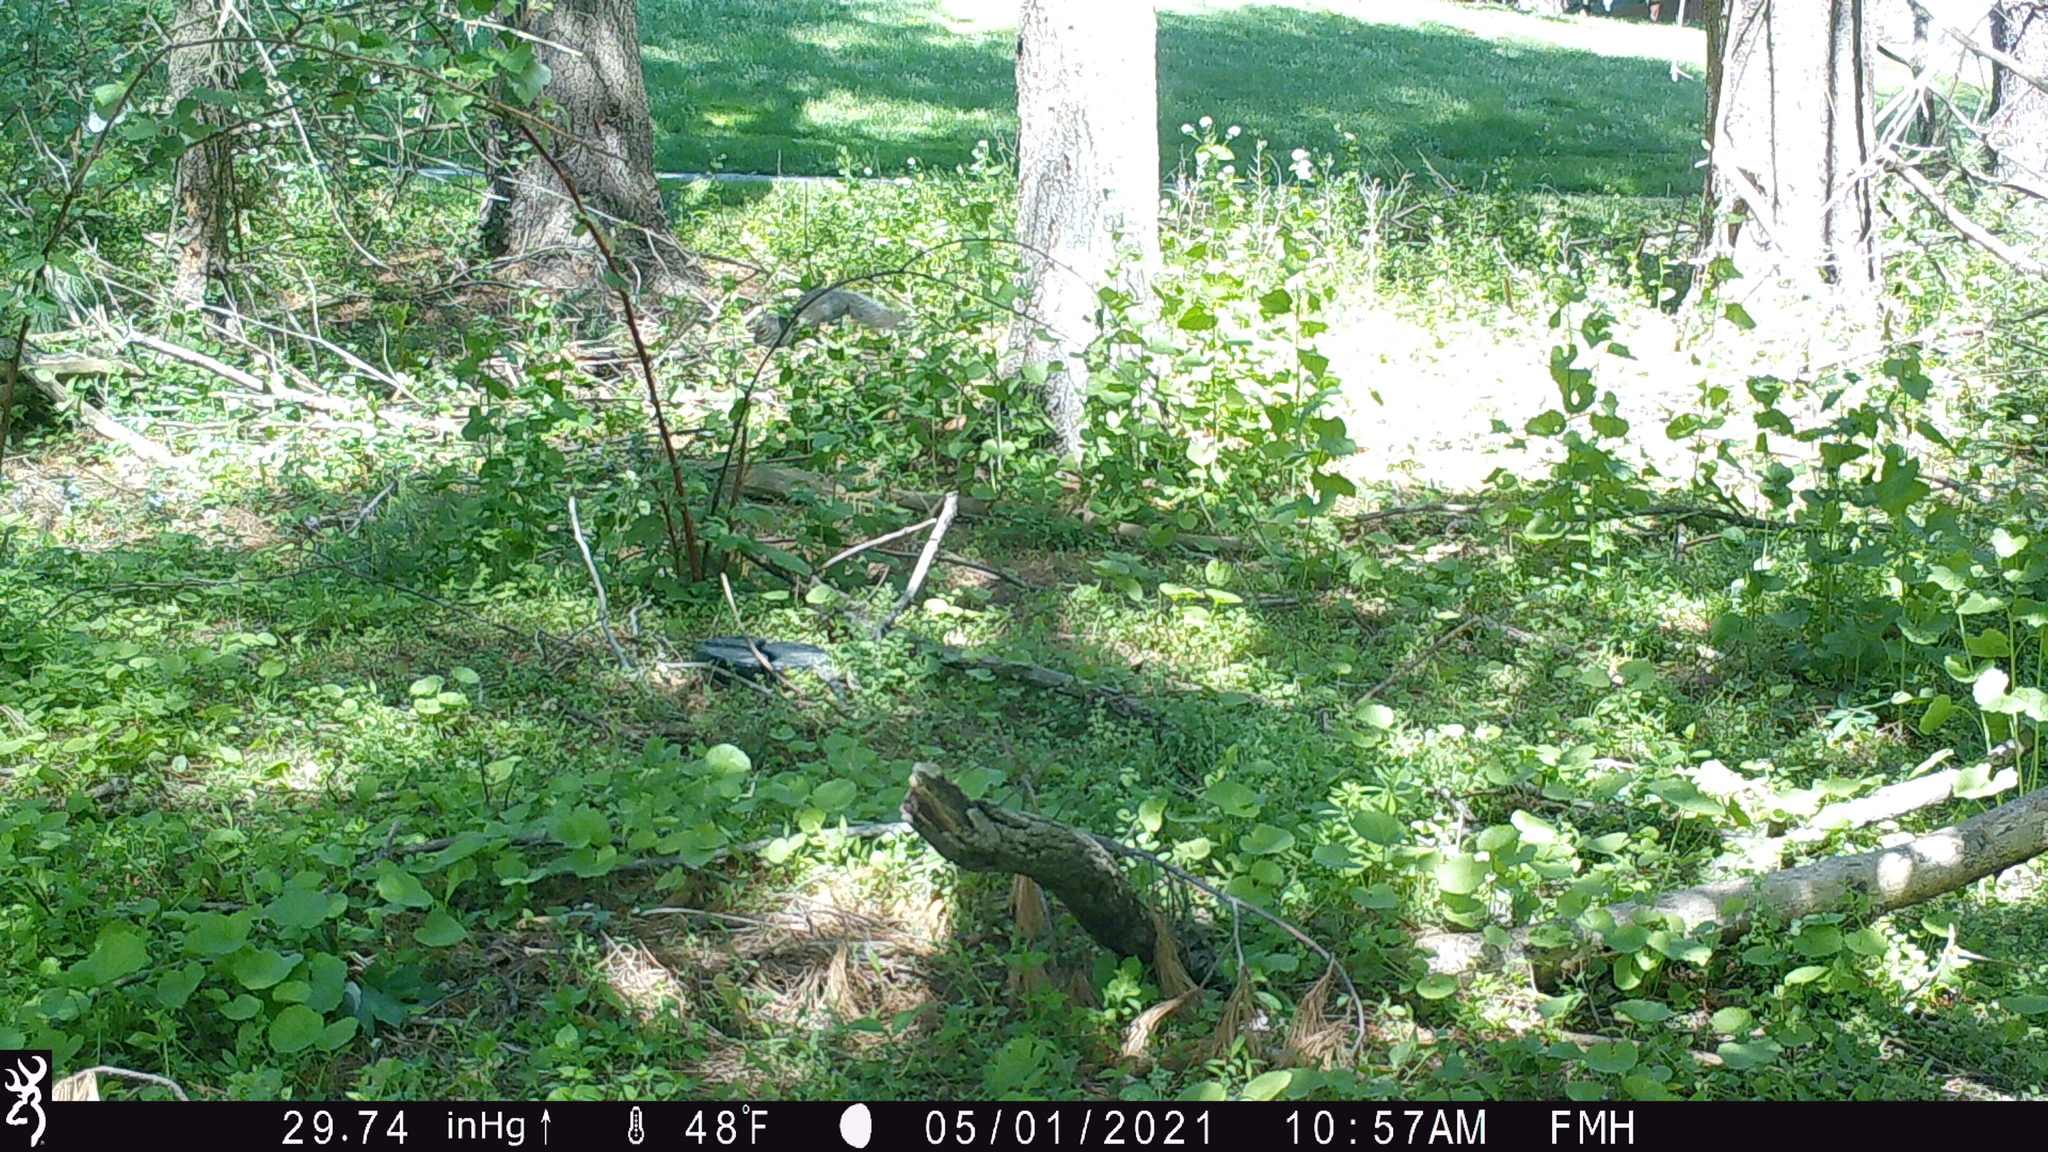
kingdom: Animalia
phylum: Chordata
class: Mammalia
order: Rodentia
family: Sciuridae
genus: Sciurus
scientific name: Sciurus carolinensis
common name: Eastern gray squirrel
